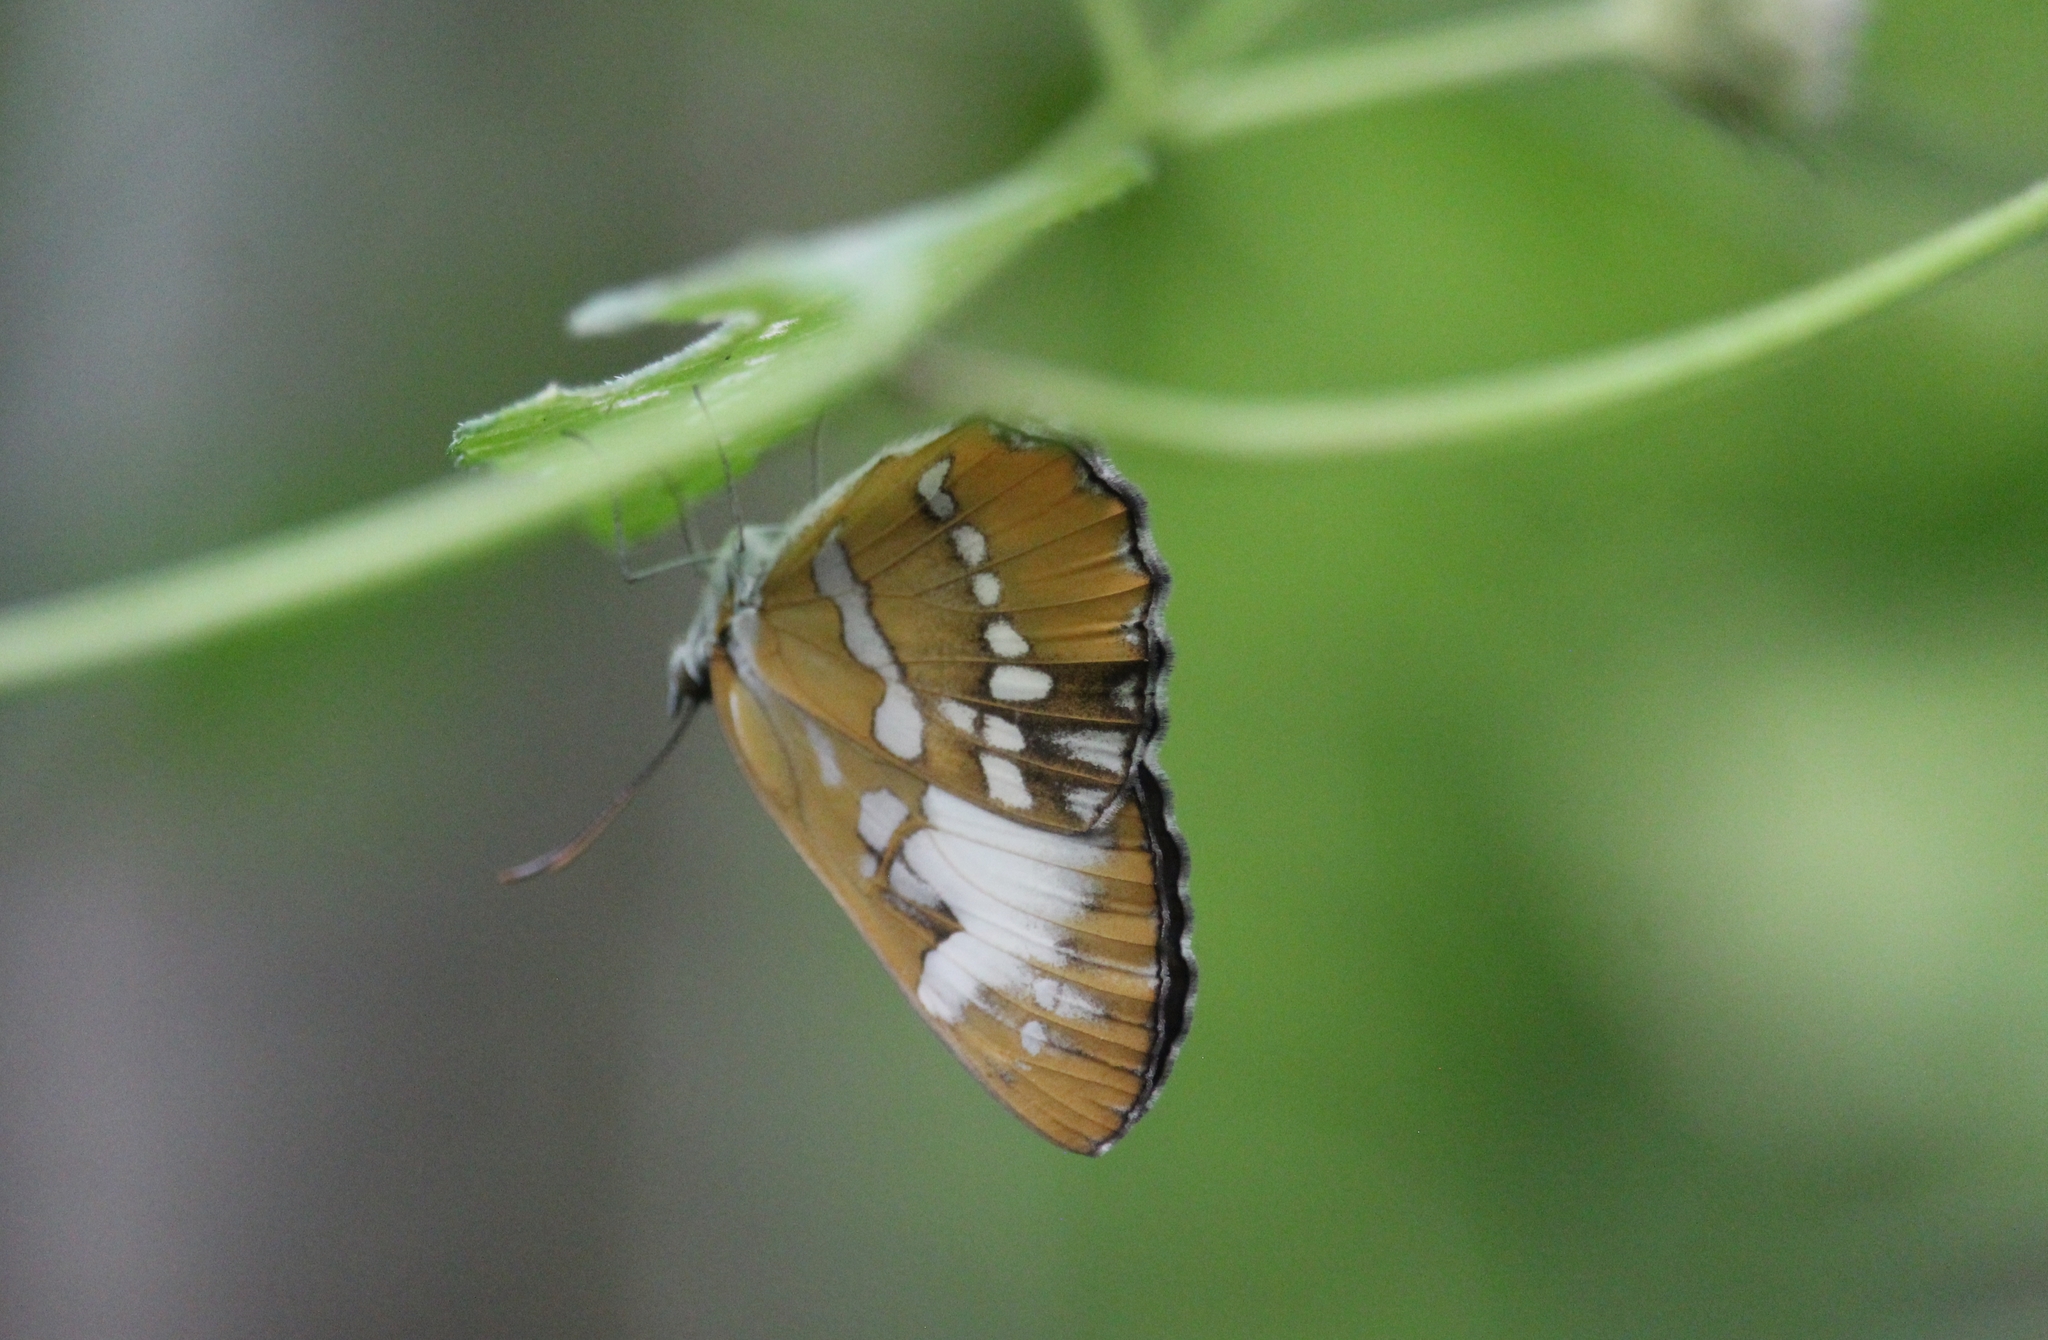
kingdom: Animalia
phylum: Arthropoda
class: Insecta
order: Lepidoptera
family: Nymphalidae
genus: Mestra
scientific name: Mestra amymone
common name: Common mestra
